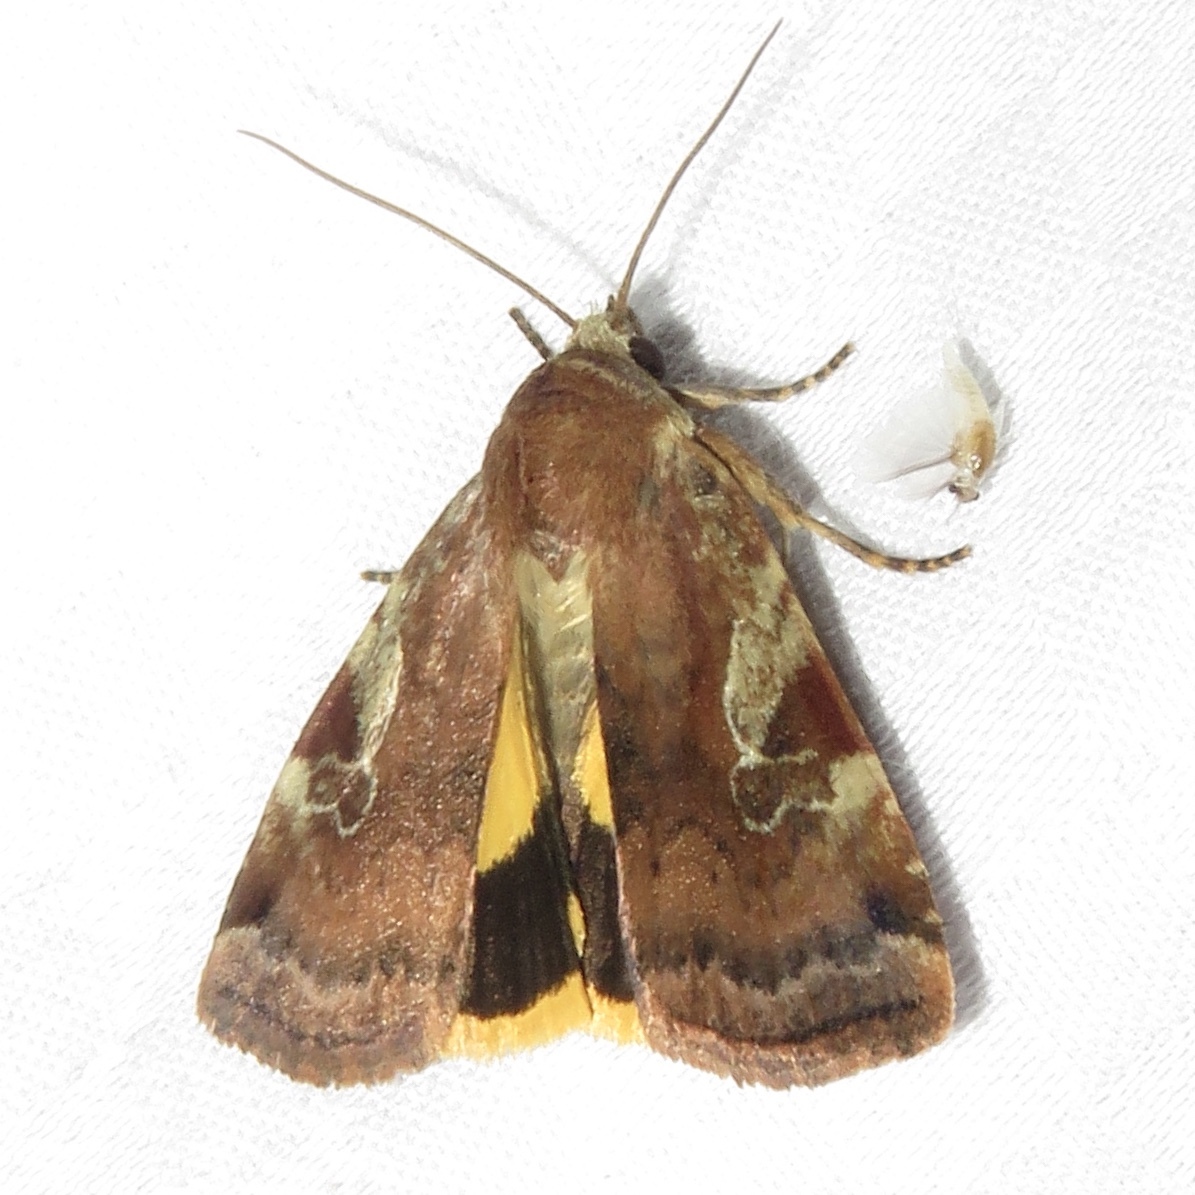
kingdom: Animalia
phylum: Arthropoda
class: Insecta
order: Lepidoptera
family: Noctuidae
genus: Cryptocala
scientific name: Cryptocala acadiensis
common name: Catocaline dart
